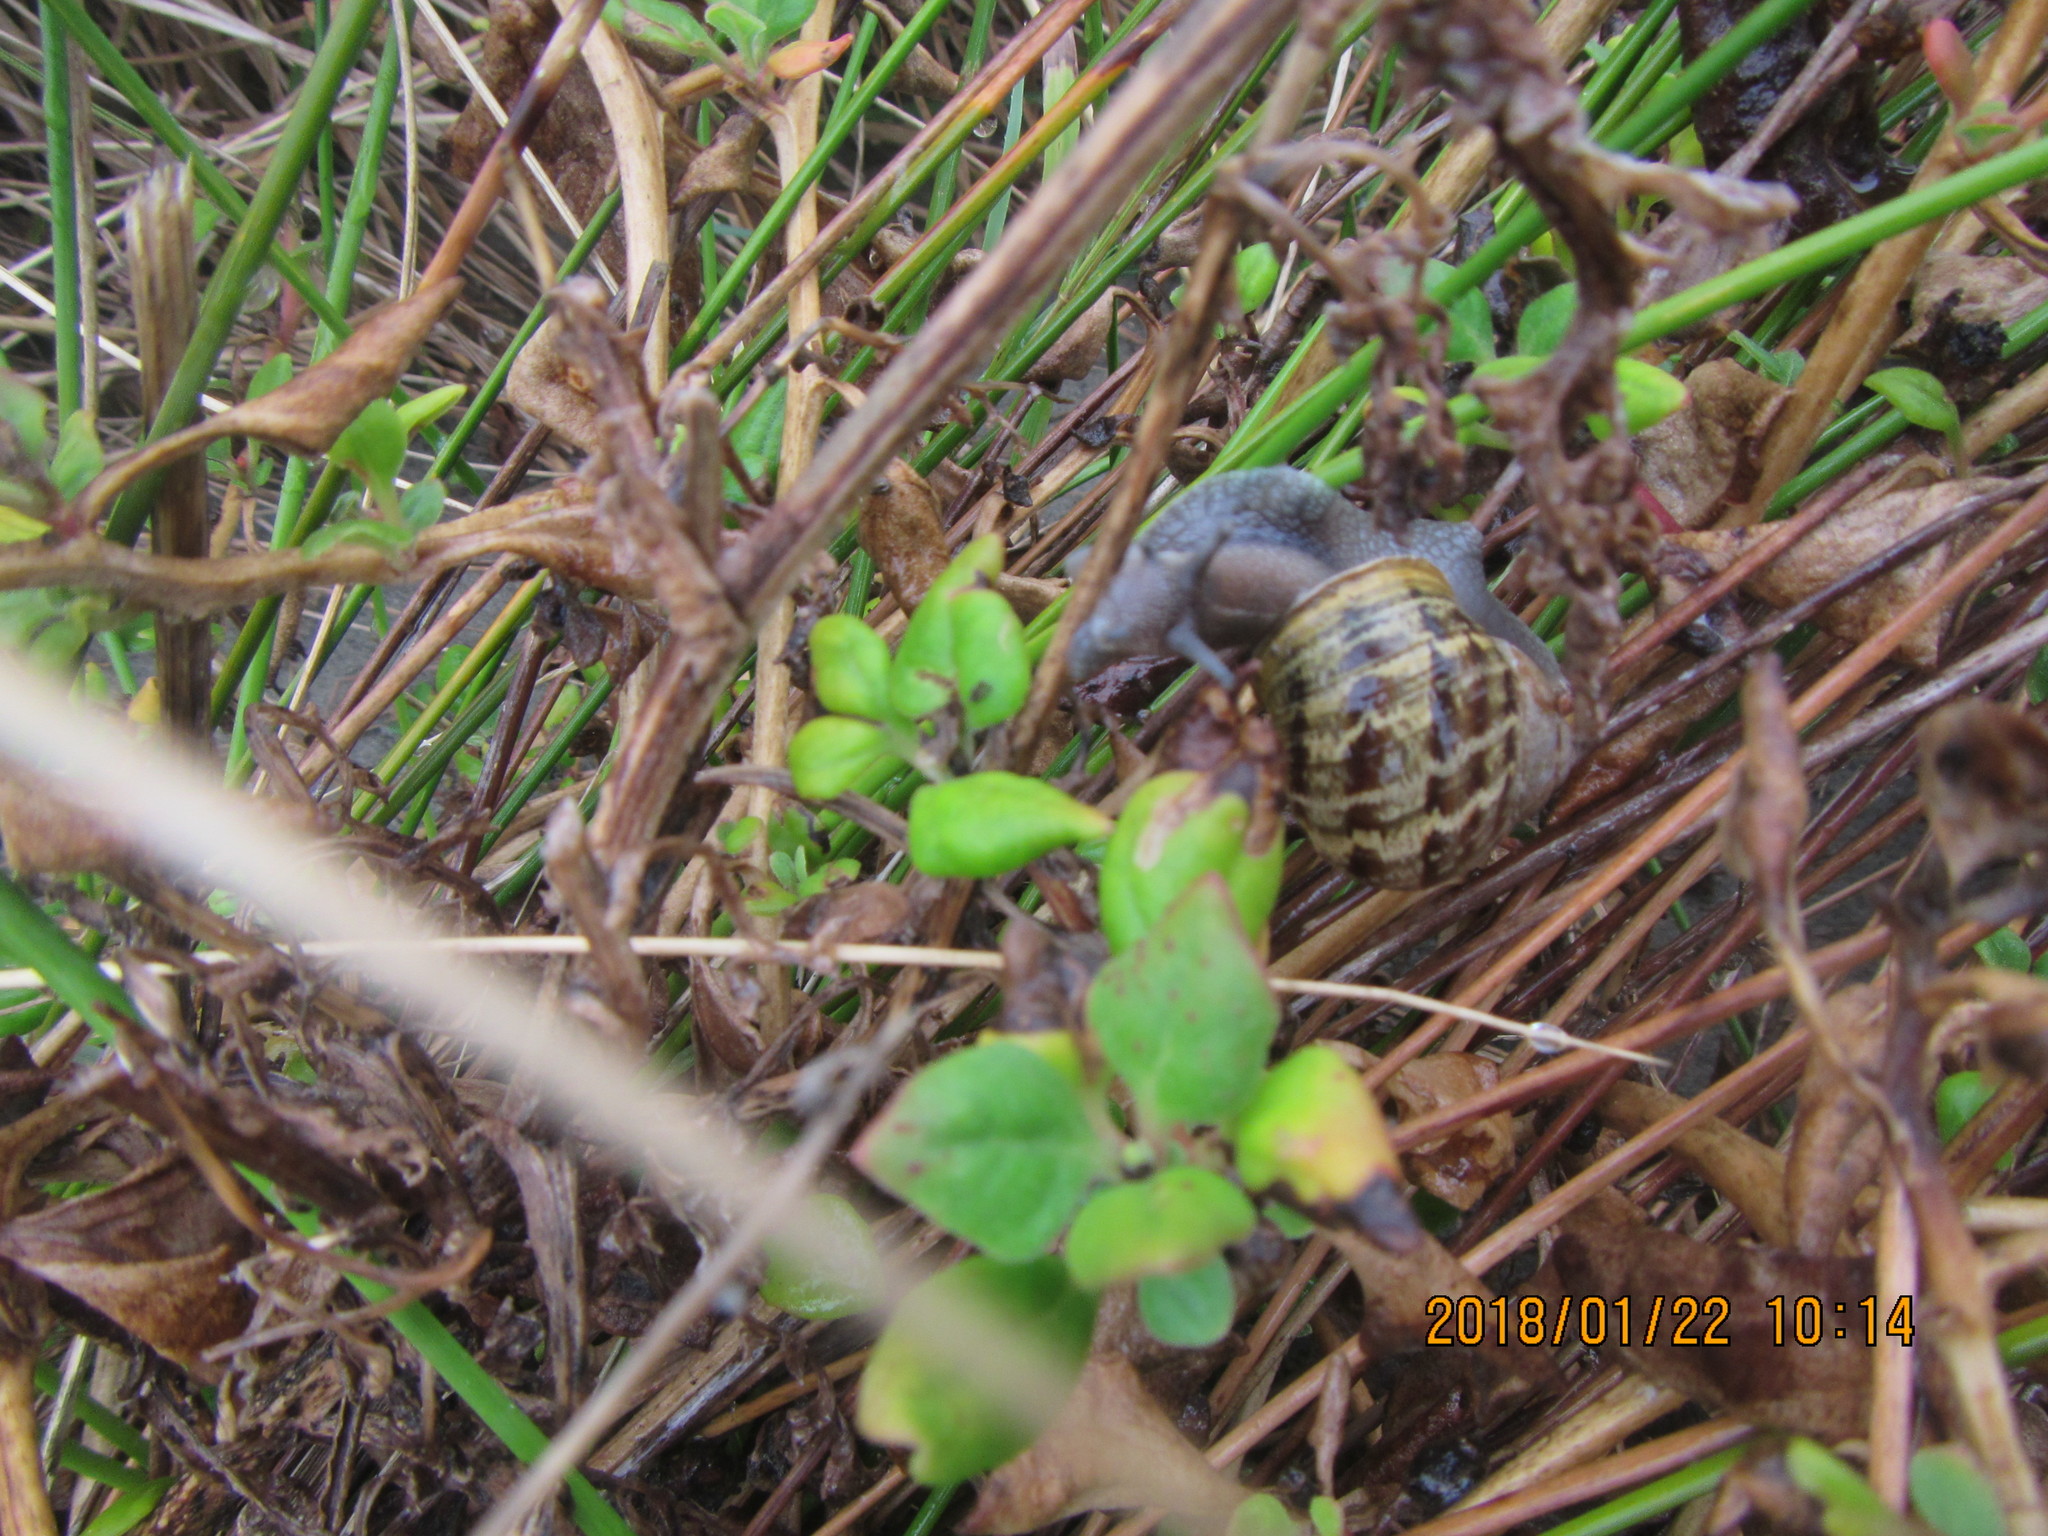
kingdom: Plantae
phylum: Tracheophyta
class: Magnoliopsida
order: Caryophyllales
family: Aizoaceae
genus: Tetragonia
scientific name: Tetragonia implexicoma
